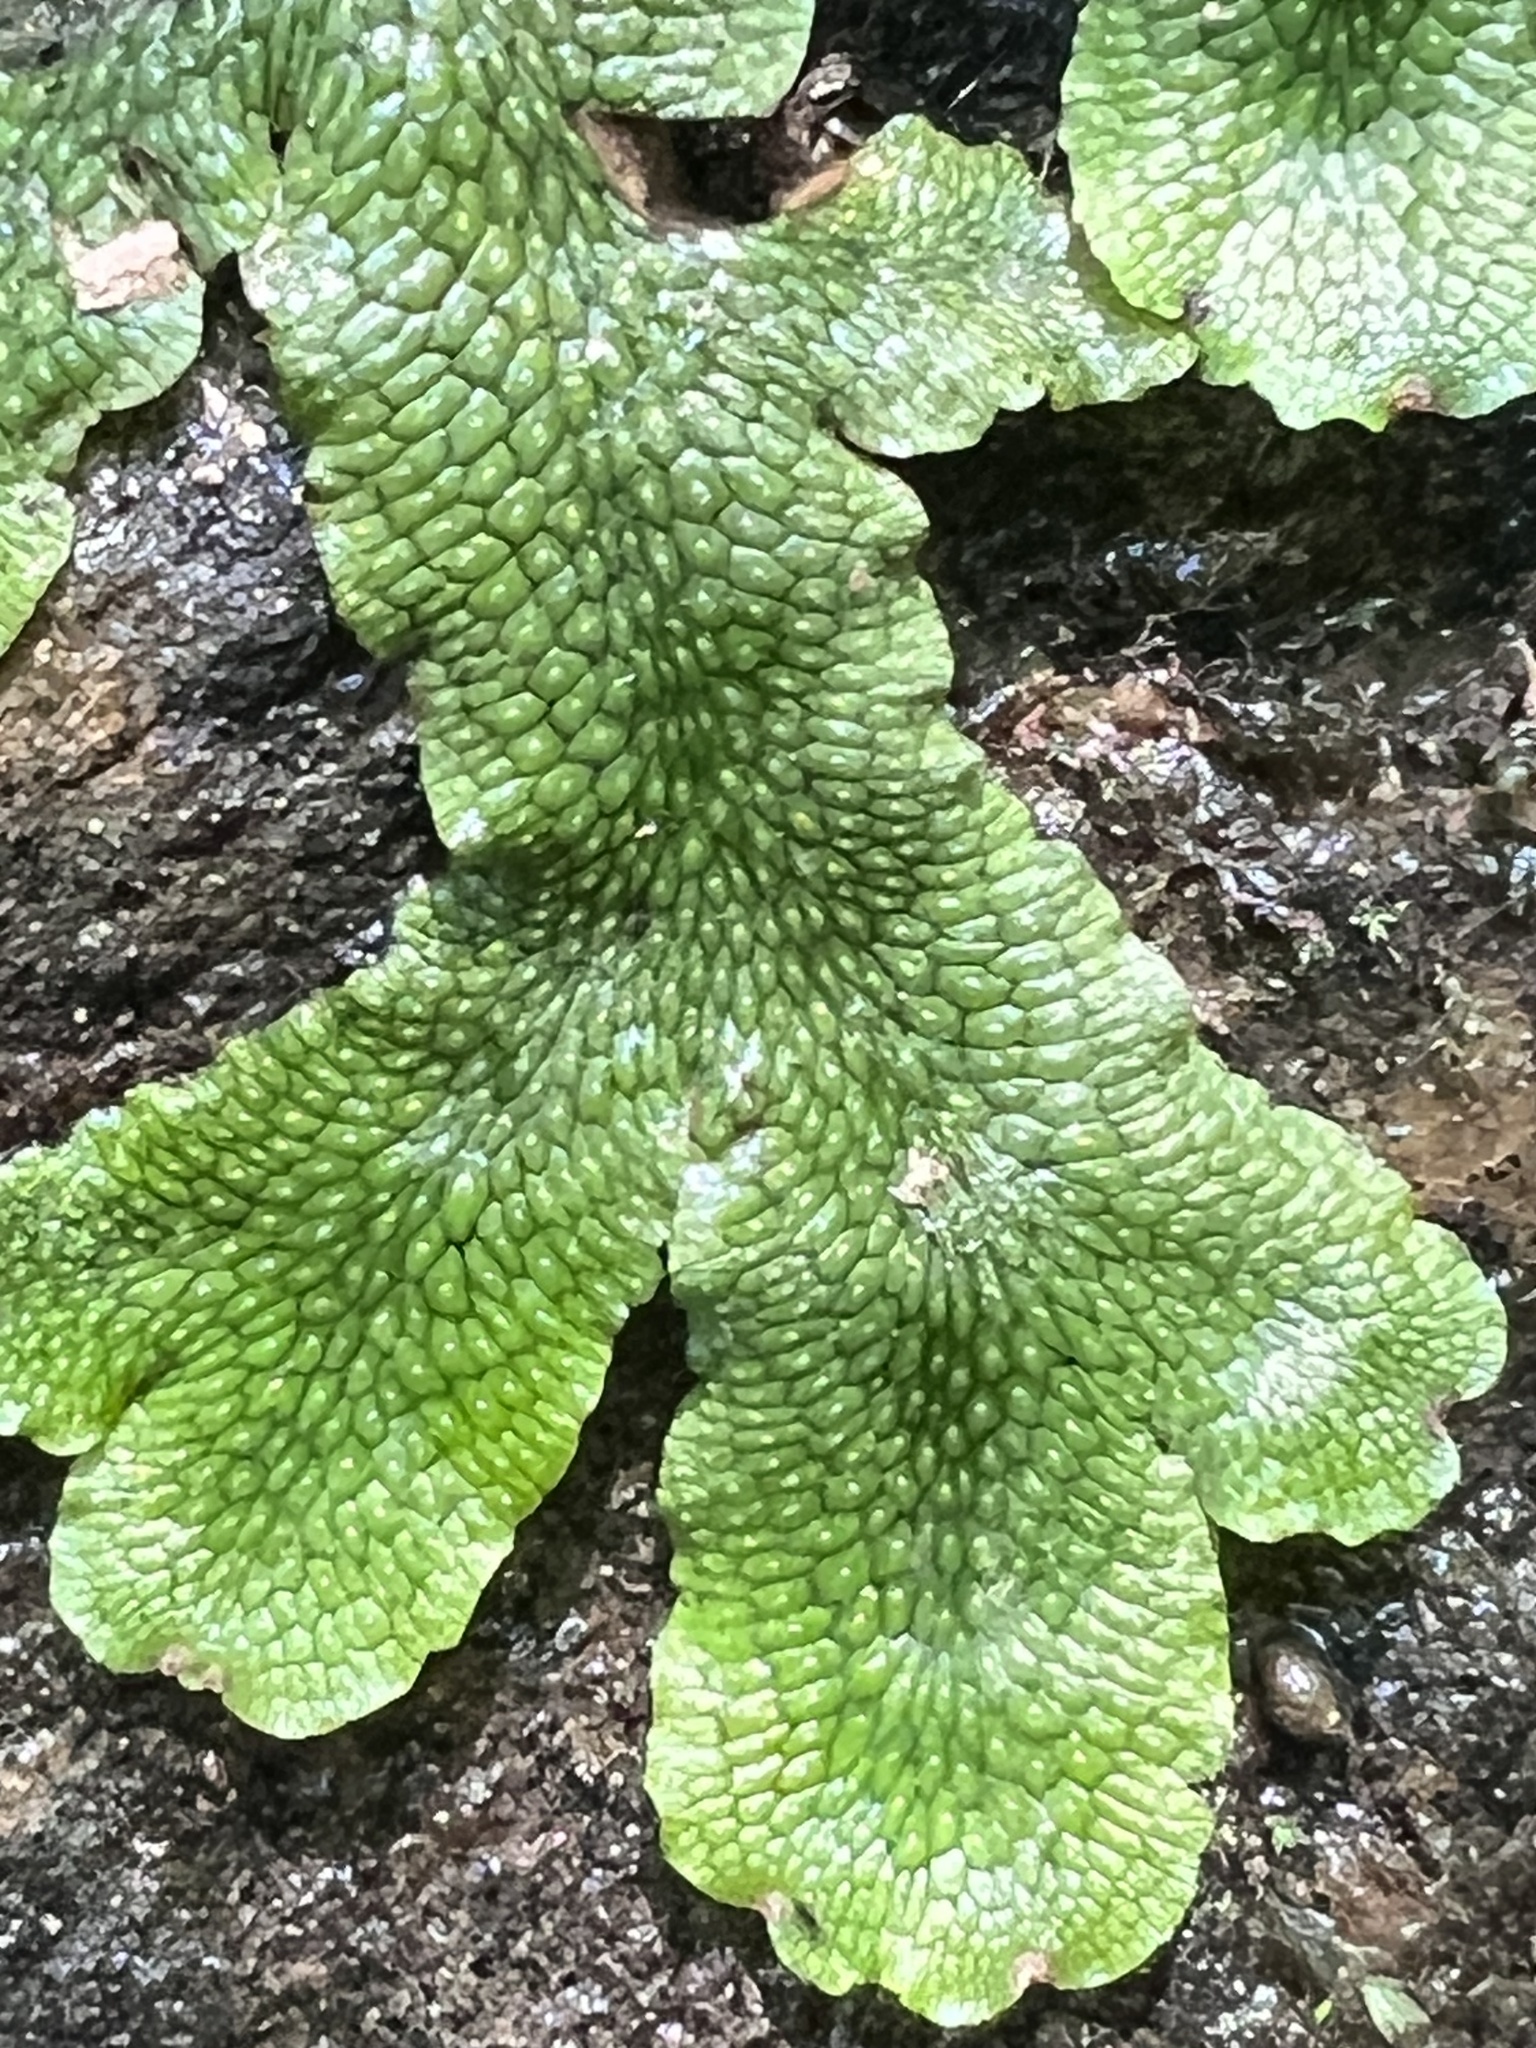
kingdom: Plantae
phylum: Marchantiophyta
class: Marchantiopsida
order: Marchantiales
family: Conocephalaceae
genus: Conocephalum
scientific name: Conocephalum salebrosum
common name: Cat-tongue liverwort
